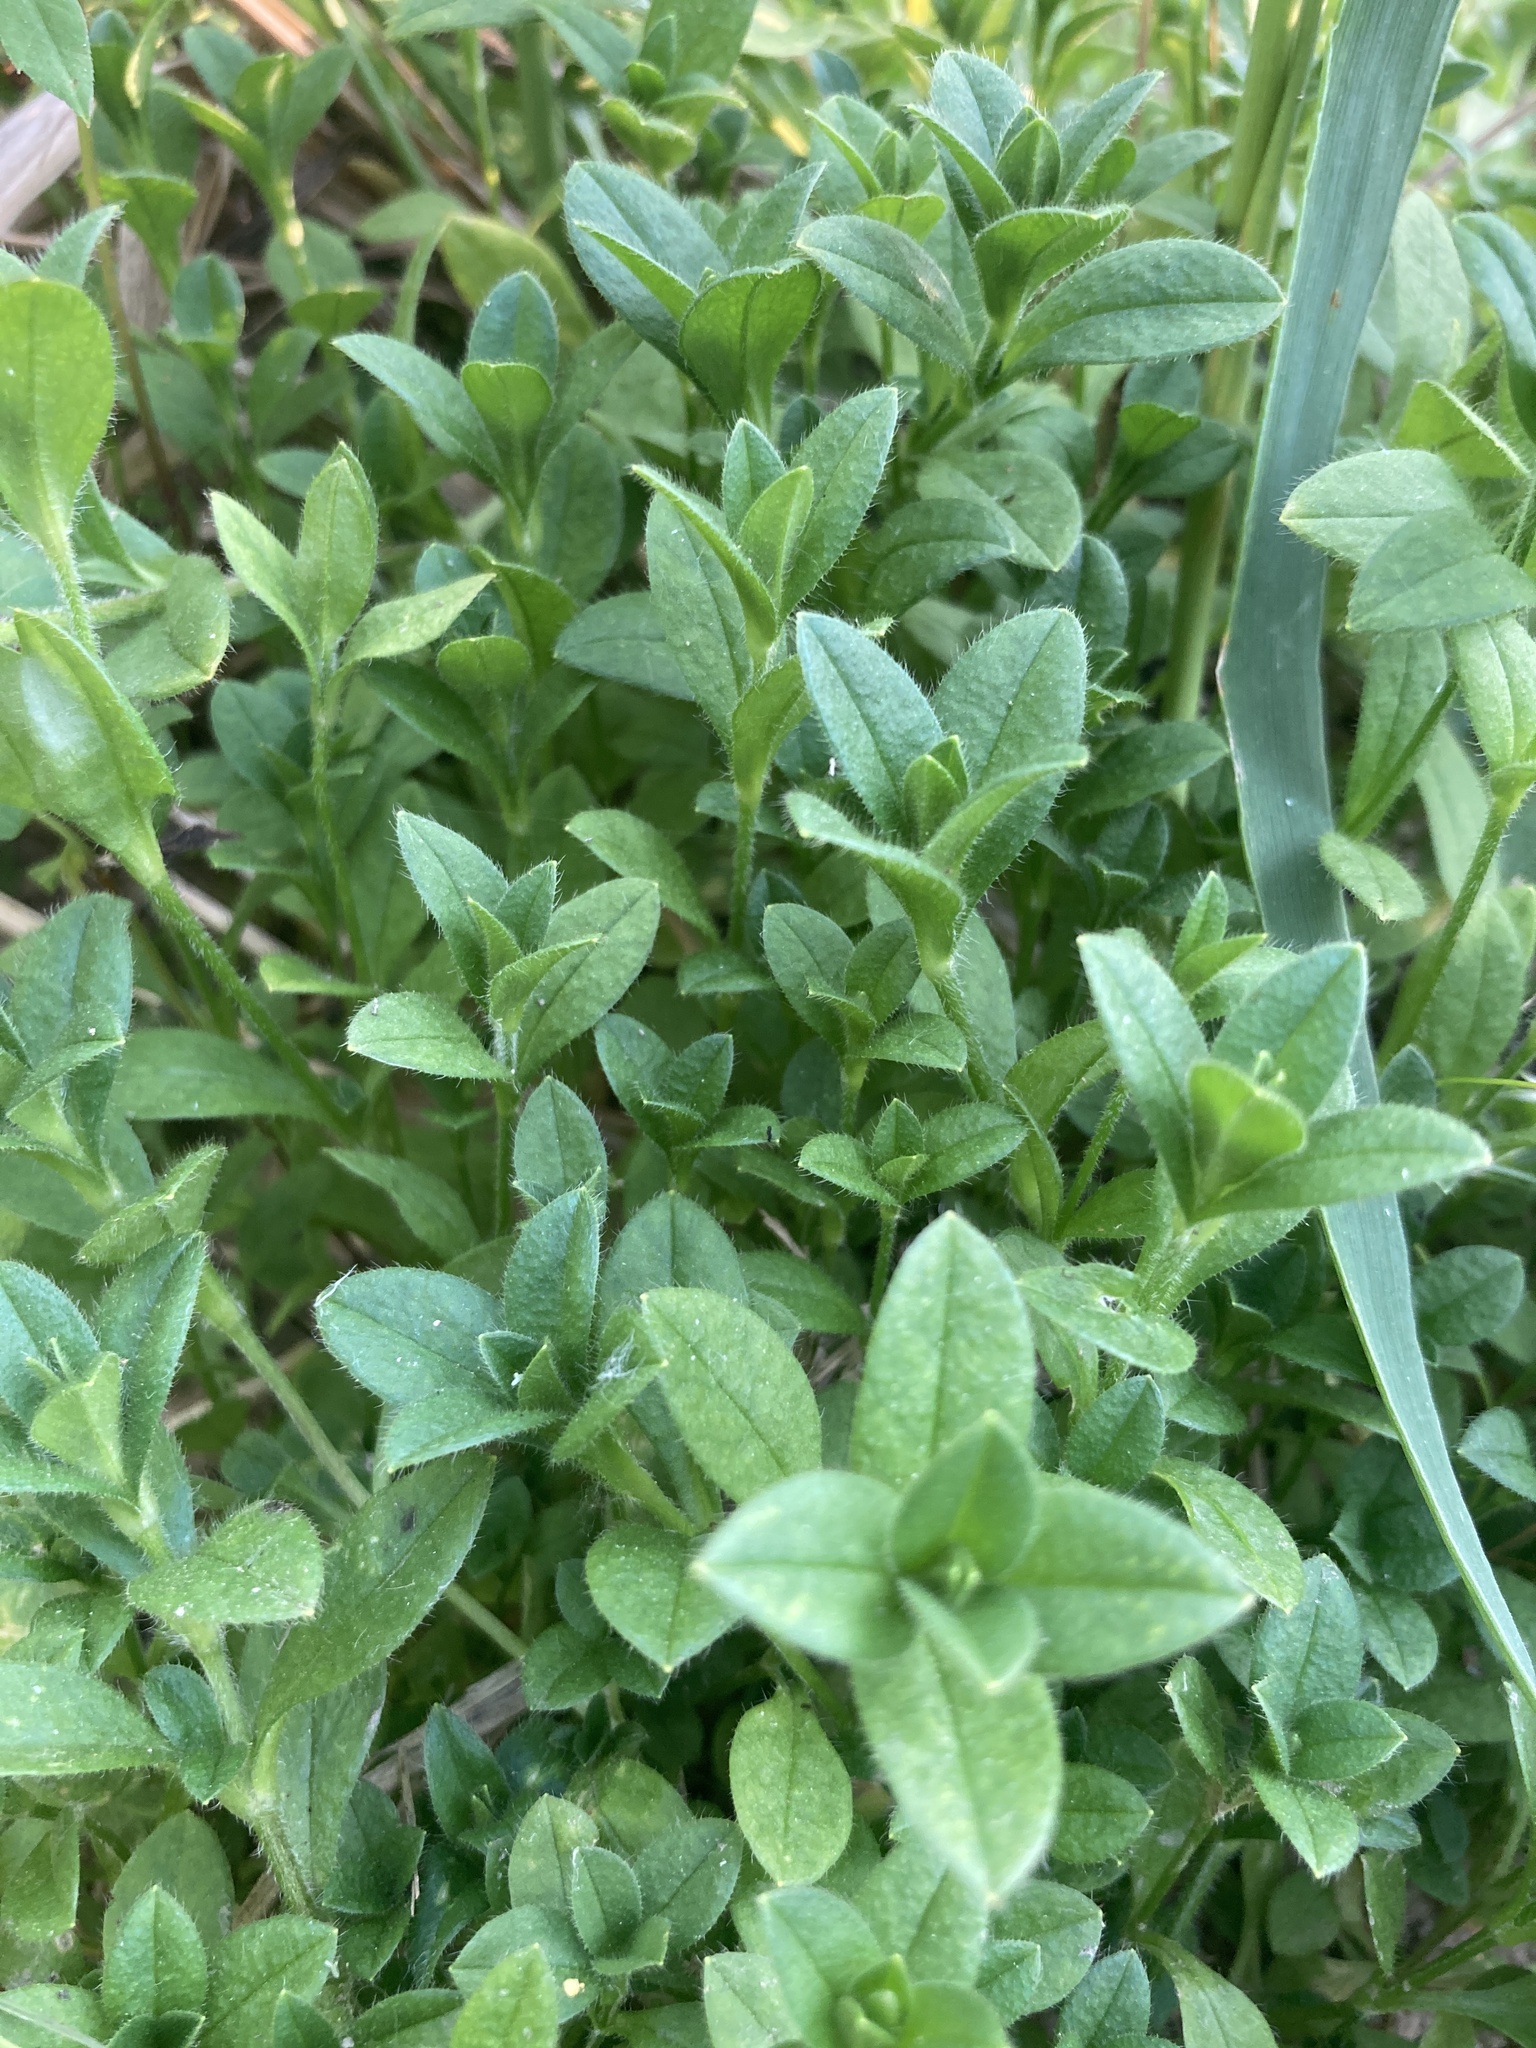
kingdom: Plantae
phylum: Tracheophyta
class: Magnoliopsida
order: Caryophyllales
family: Caryophyllaceae
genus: Cerastium
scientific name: Cerastium holosteoides
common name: Big chickweed
